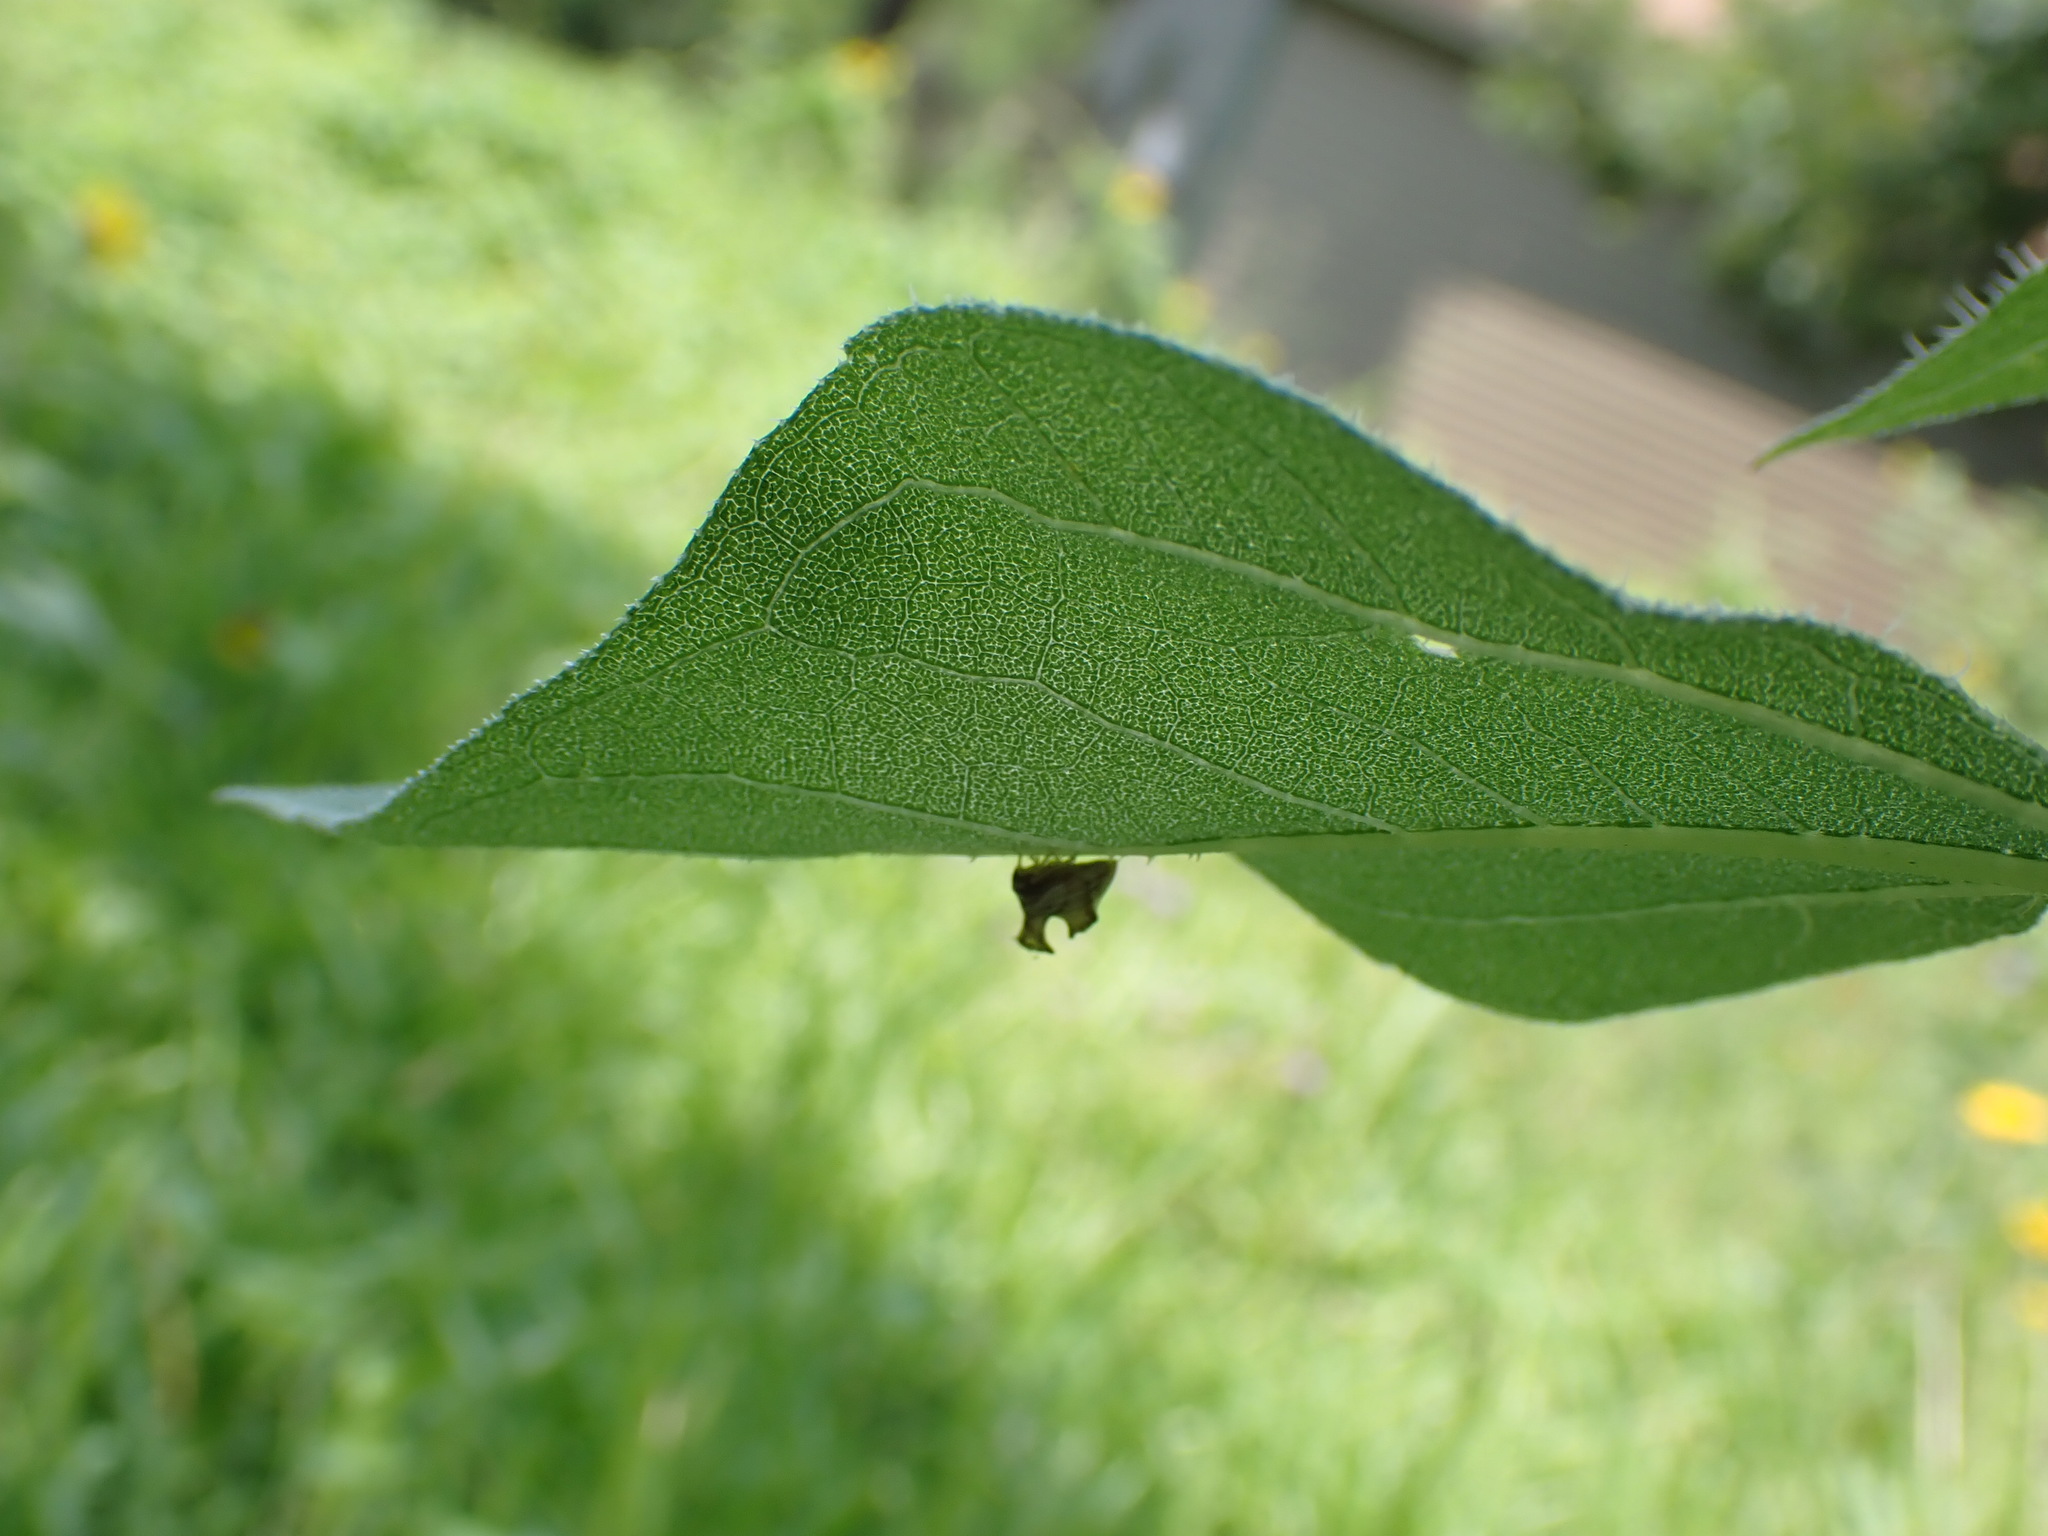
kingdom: Animalia
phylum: Arthropoda
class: Insecta
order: Hemiptera
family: Membracidae
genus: Entylia
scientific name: Entylia carinata
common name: Keeled treehopper
